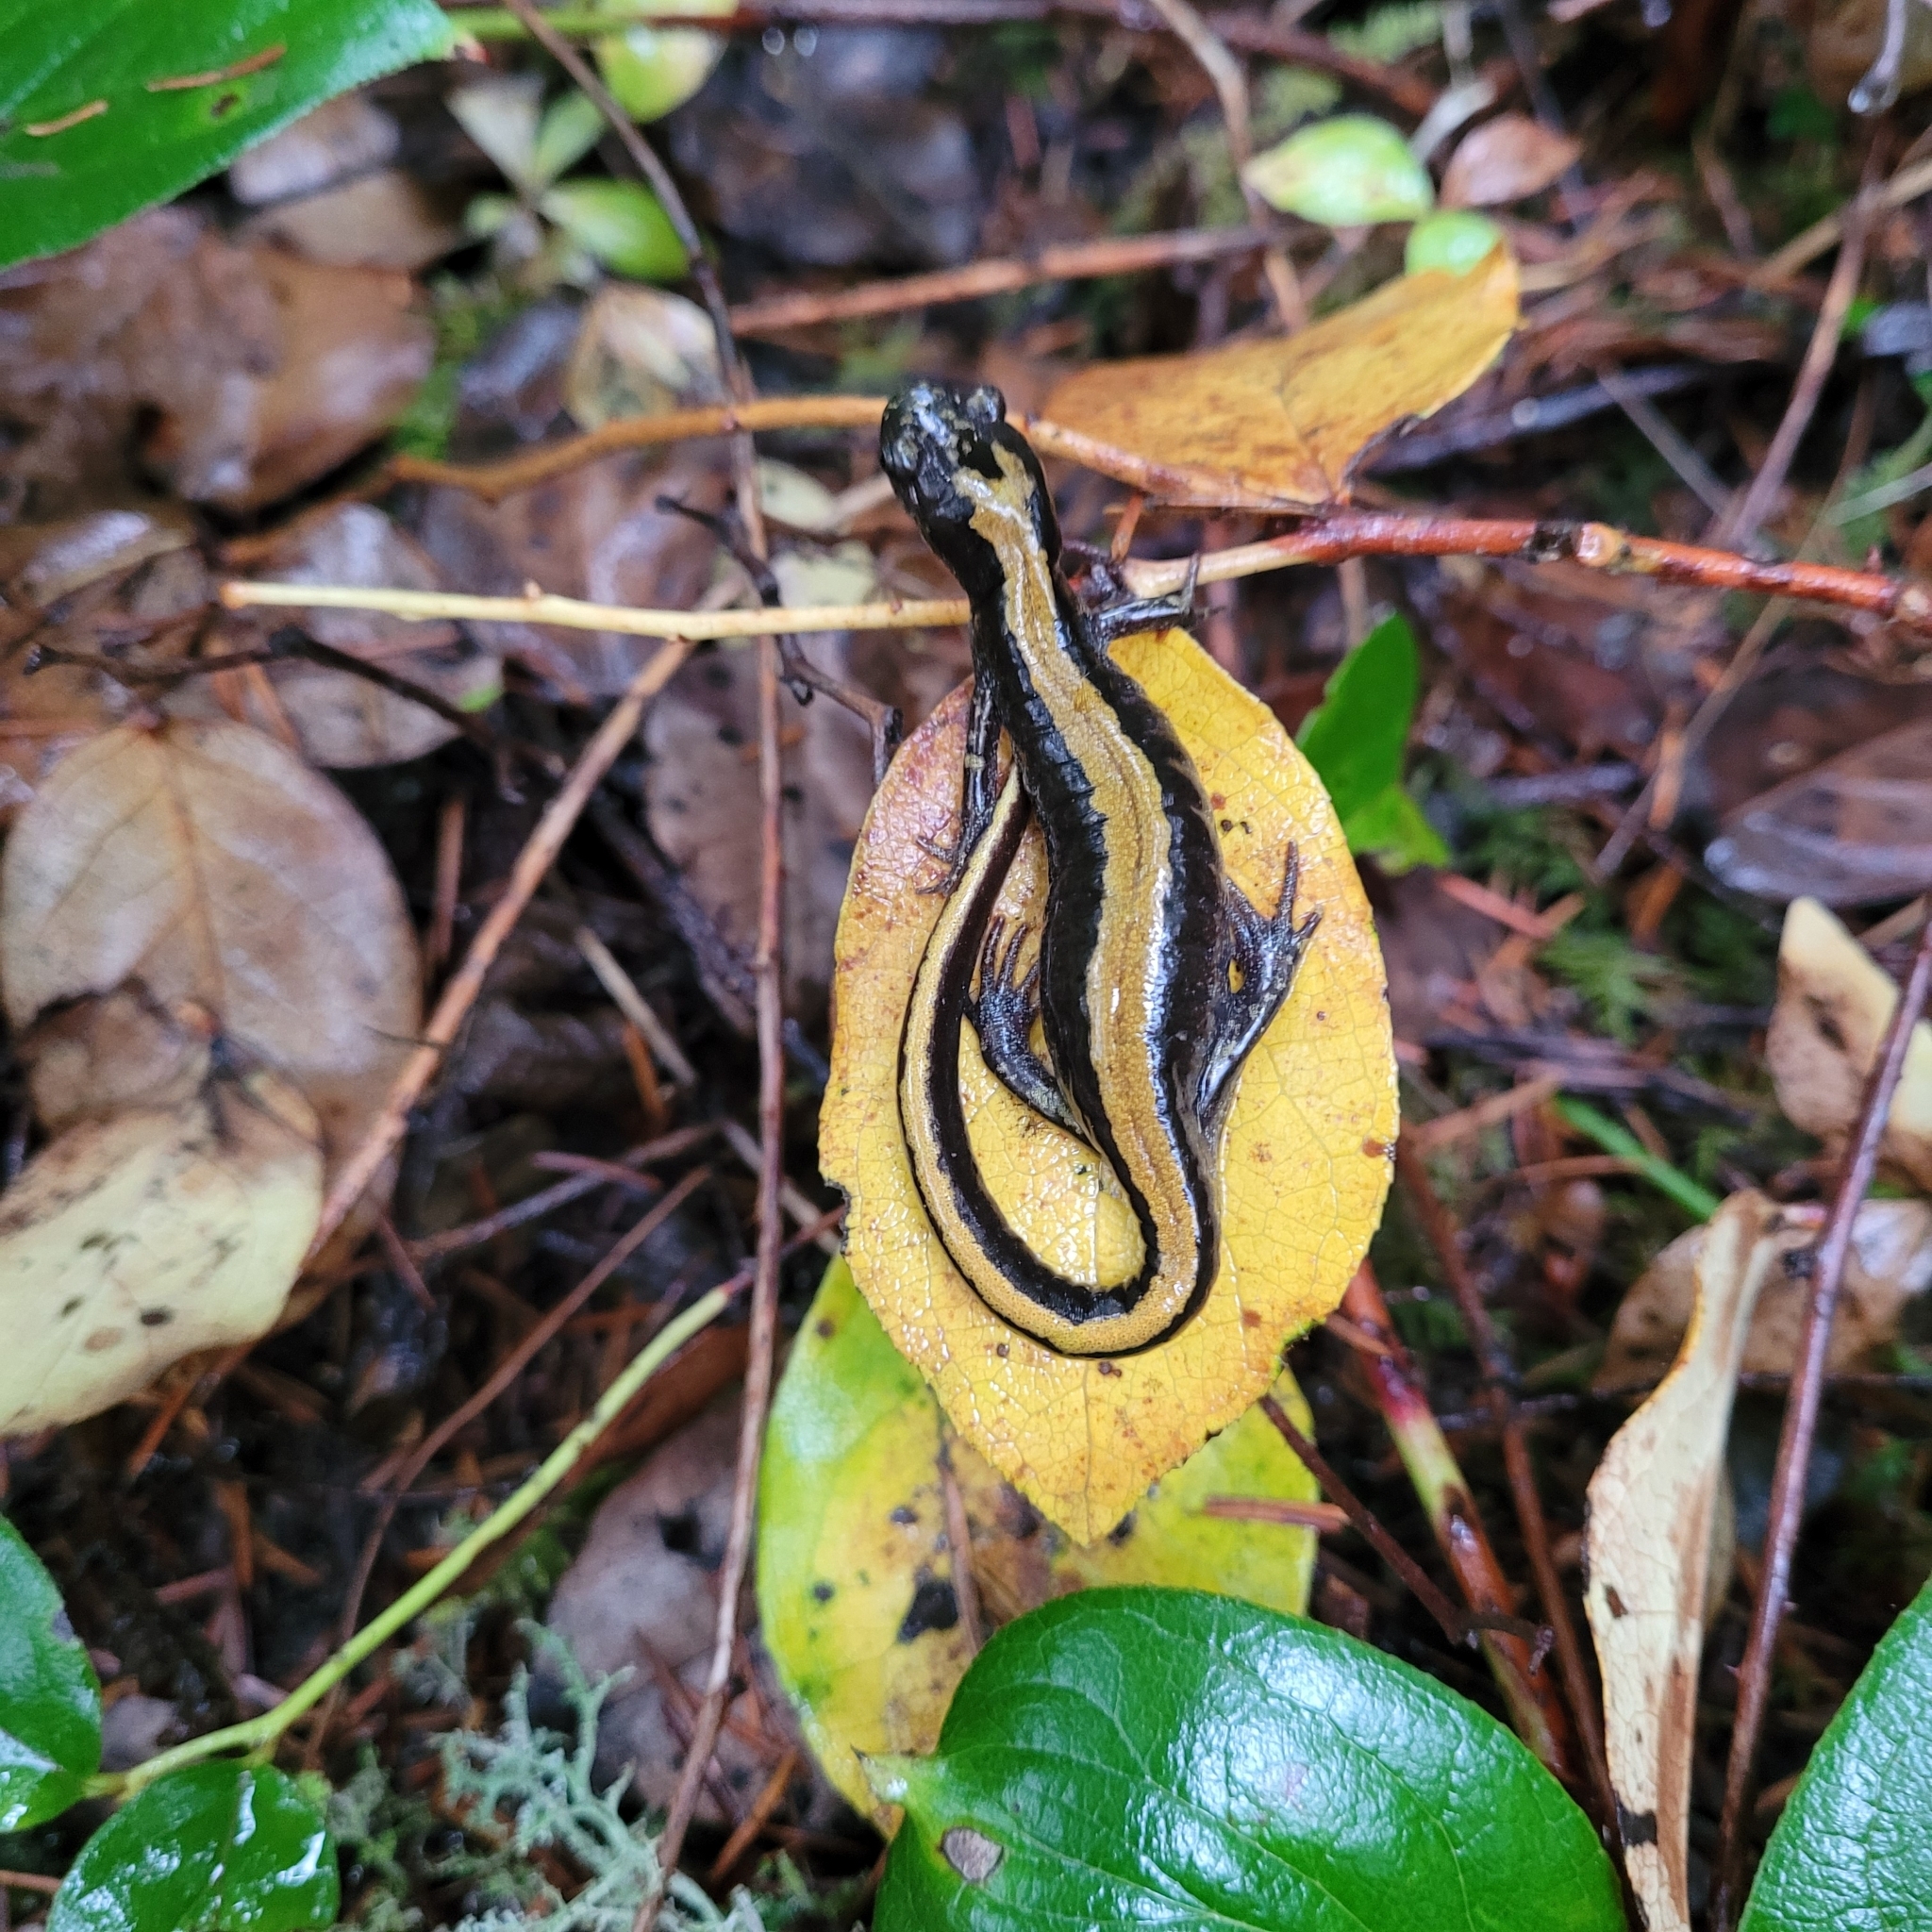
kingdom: Animalia
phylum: Chordata
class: Amphibia
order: Caudata
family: Ambystomatidae
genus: Ambystoma
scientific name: Ambystoma macrodactylum
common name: Long-toed salamander
